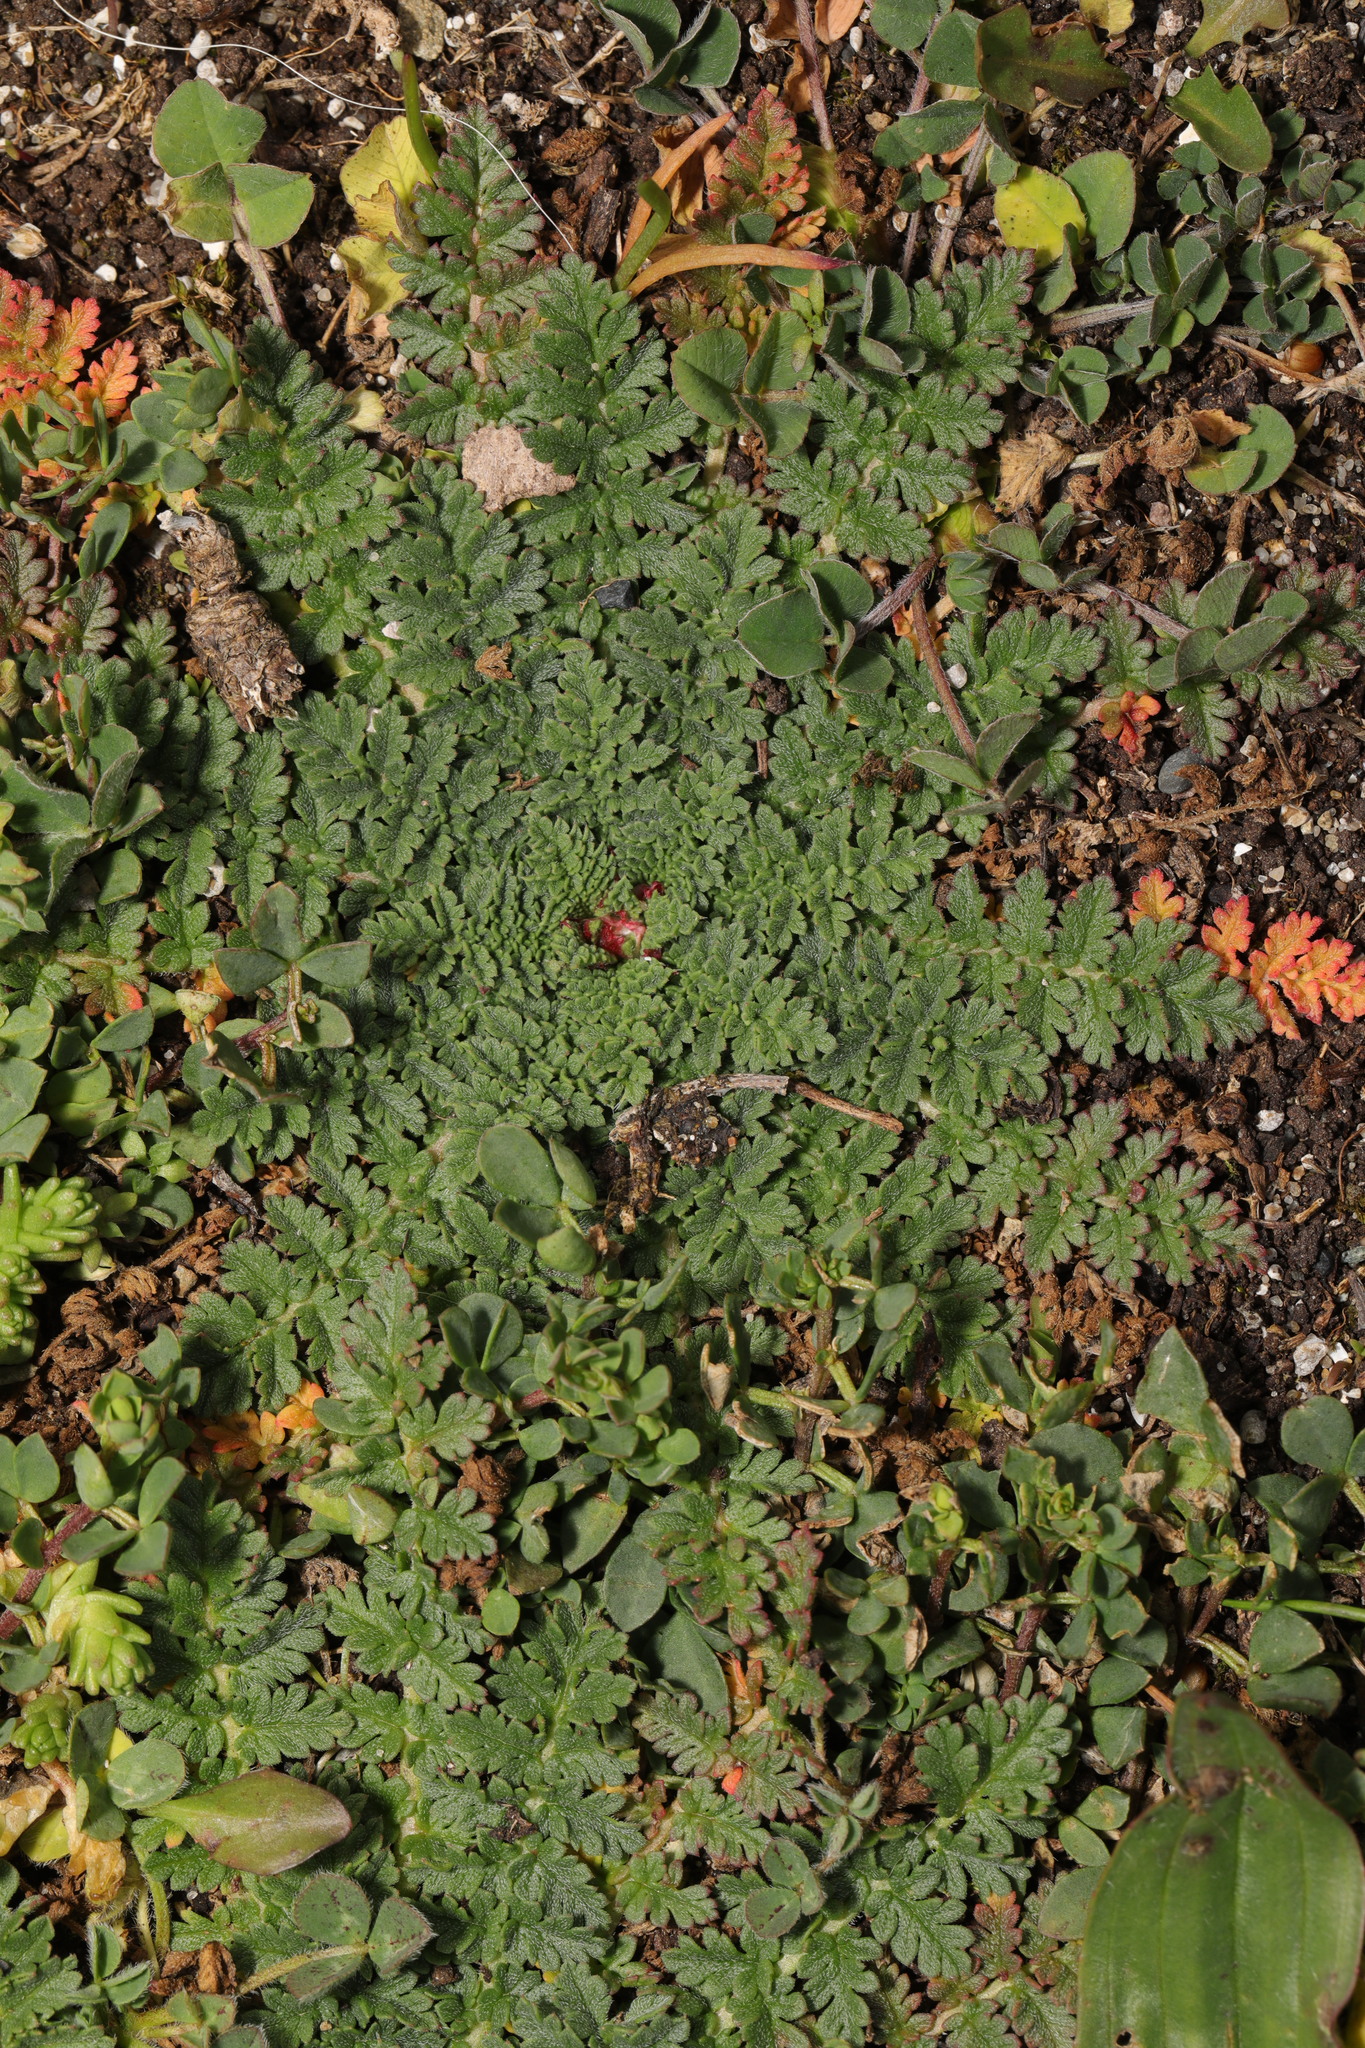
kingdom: Plantae
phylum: Tracheophyta
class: Magnoliopsida
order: Geraniales
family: Geraniaceae
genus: Erodium
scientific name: Erodium cicutarium
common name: Common stork's-bill
